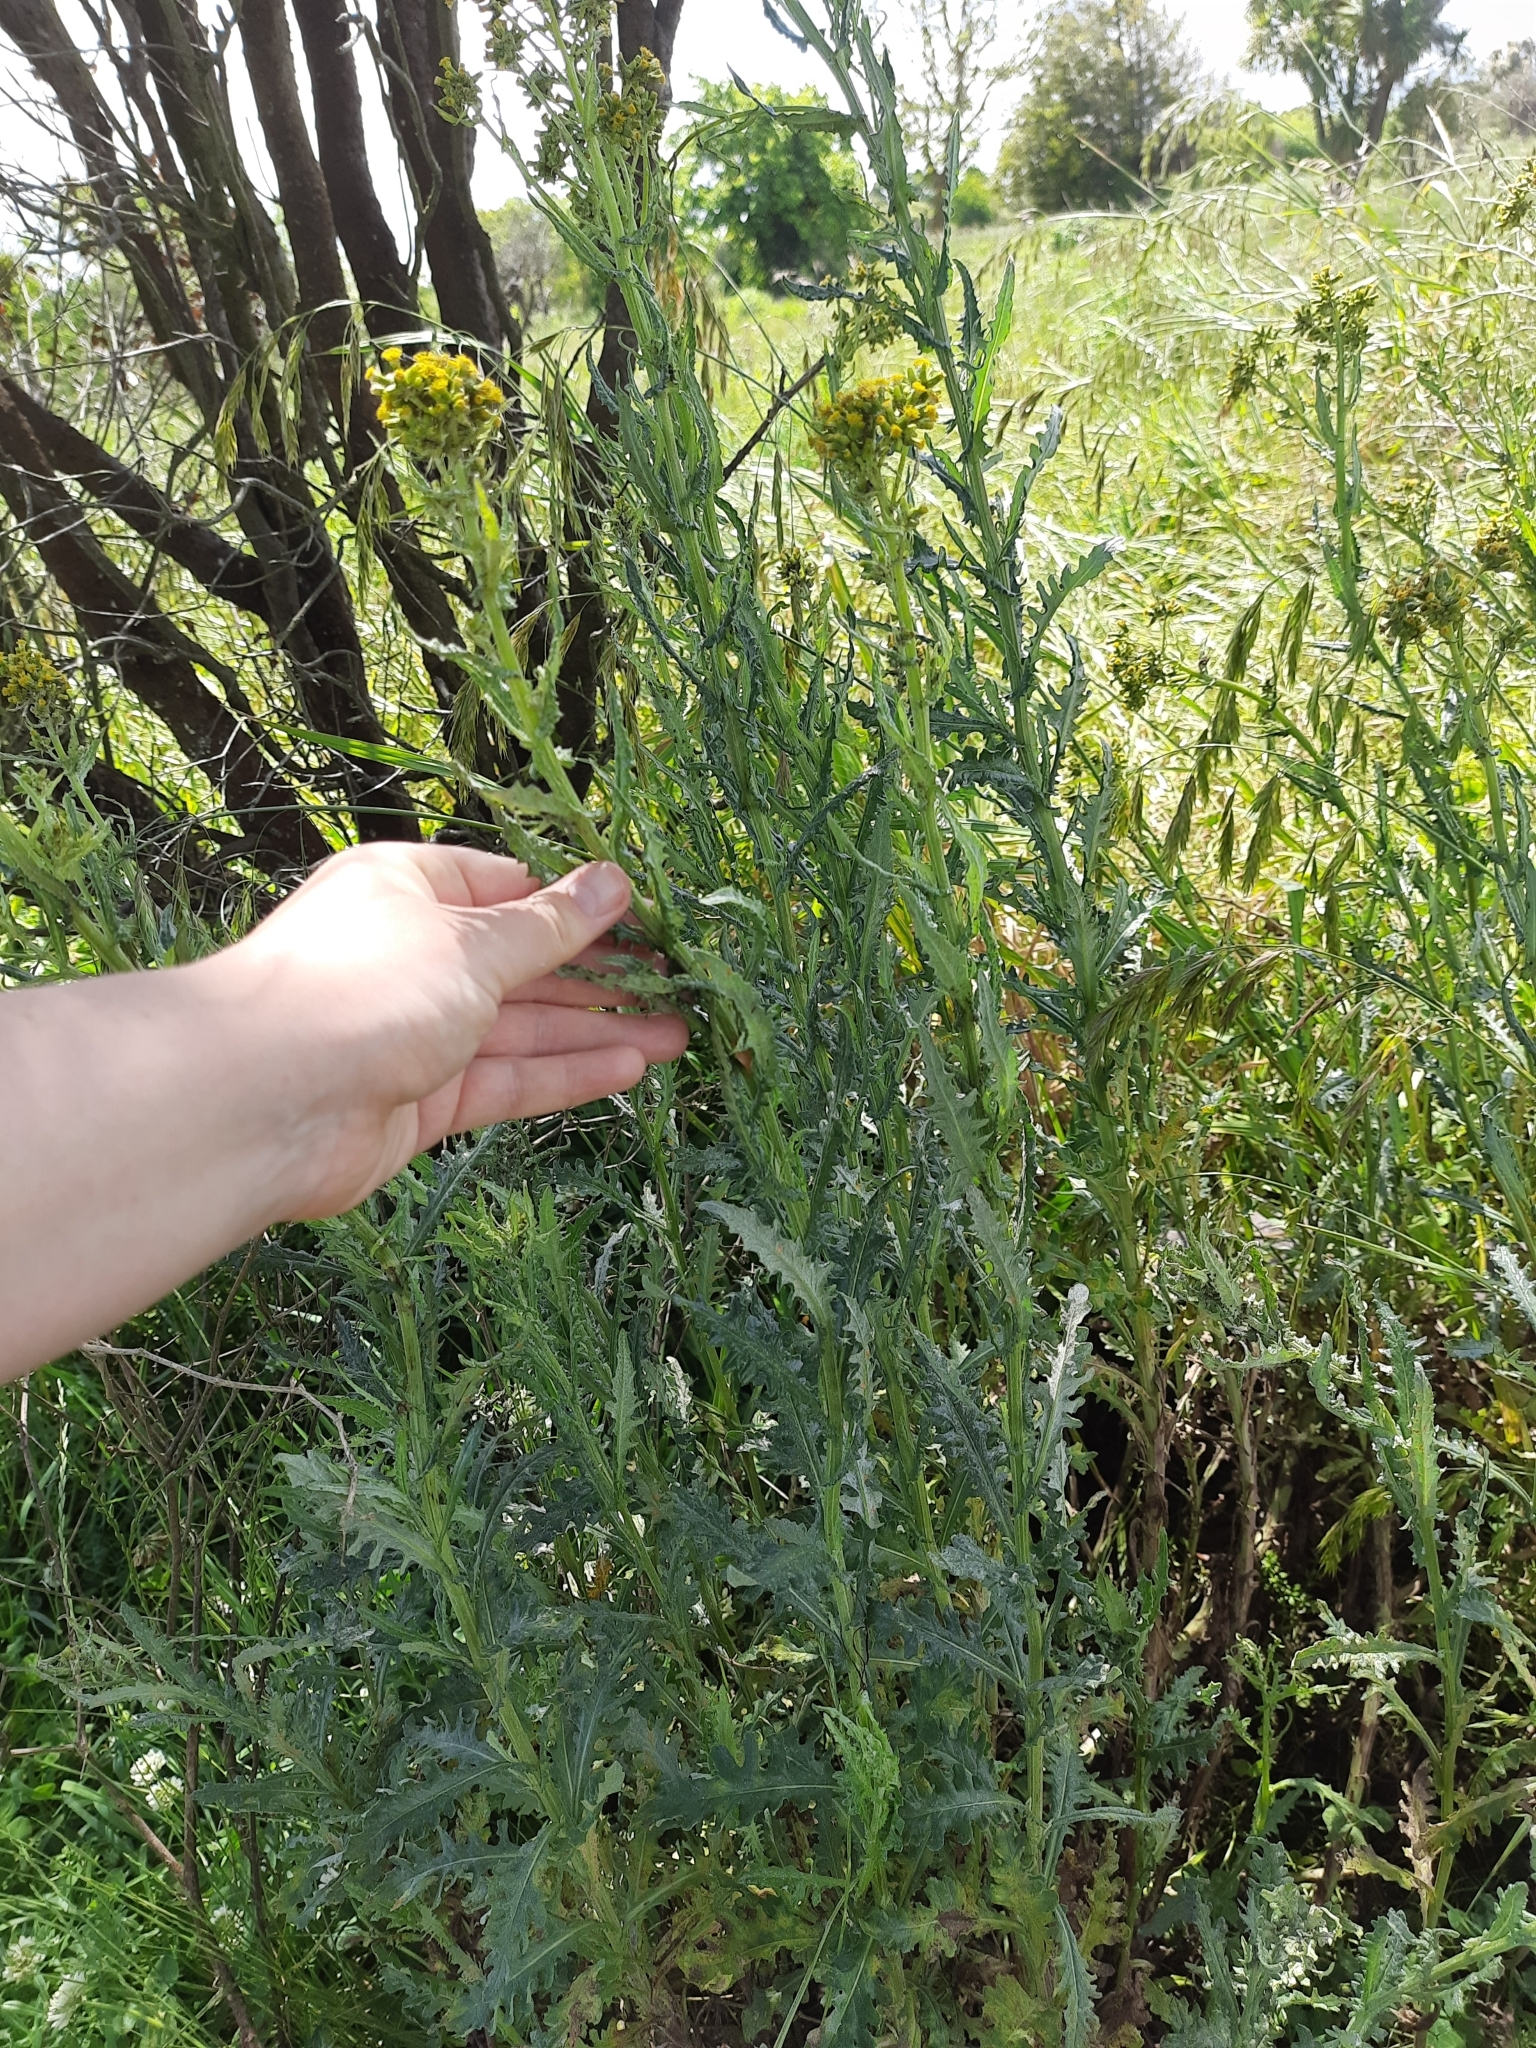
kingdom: Plantae
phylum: Tracheophyta
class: Magnoliopsida
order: Asterales
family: Asteraceae
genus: Senecio
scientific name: Senecio glomeratus
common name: Cutleaf burnweed
